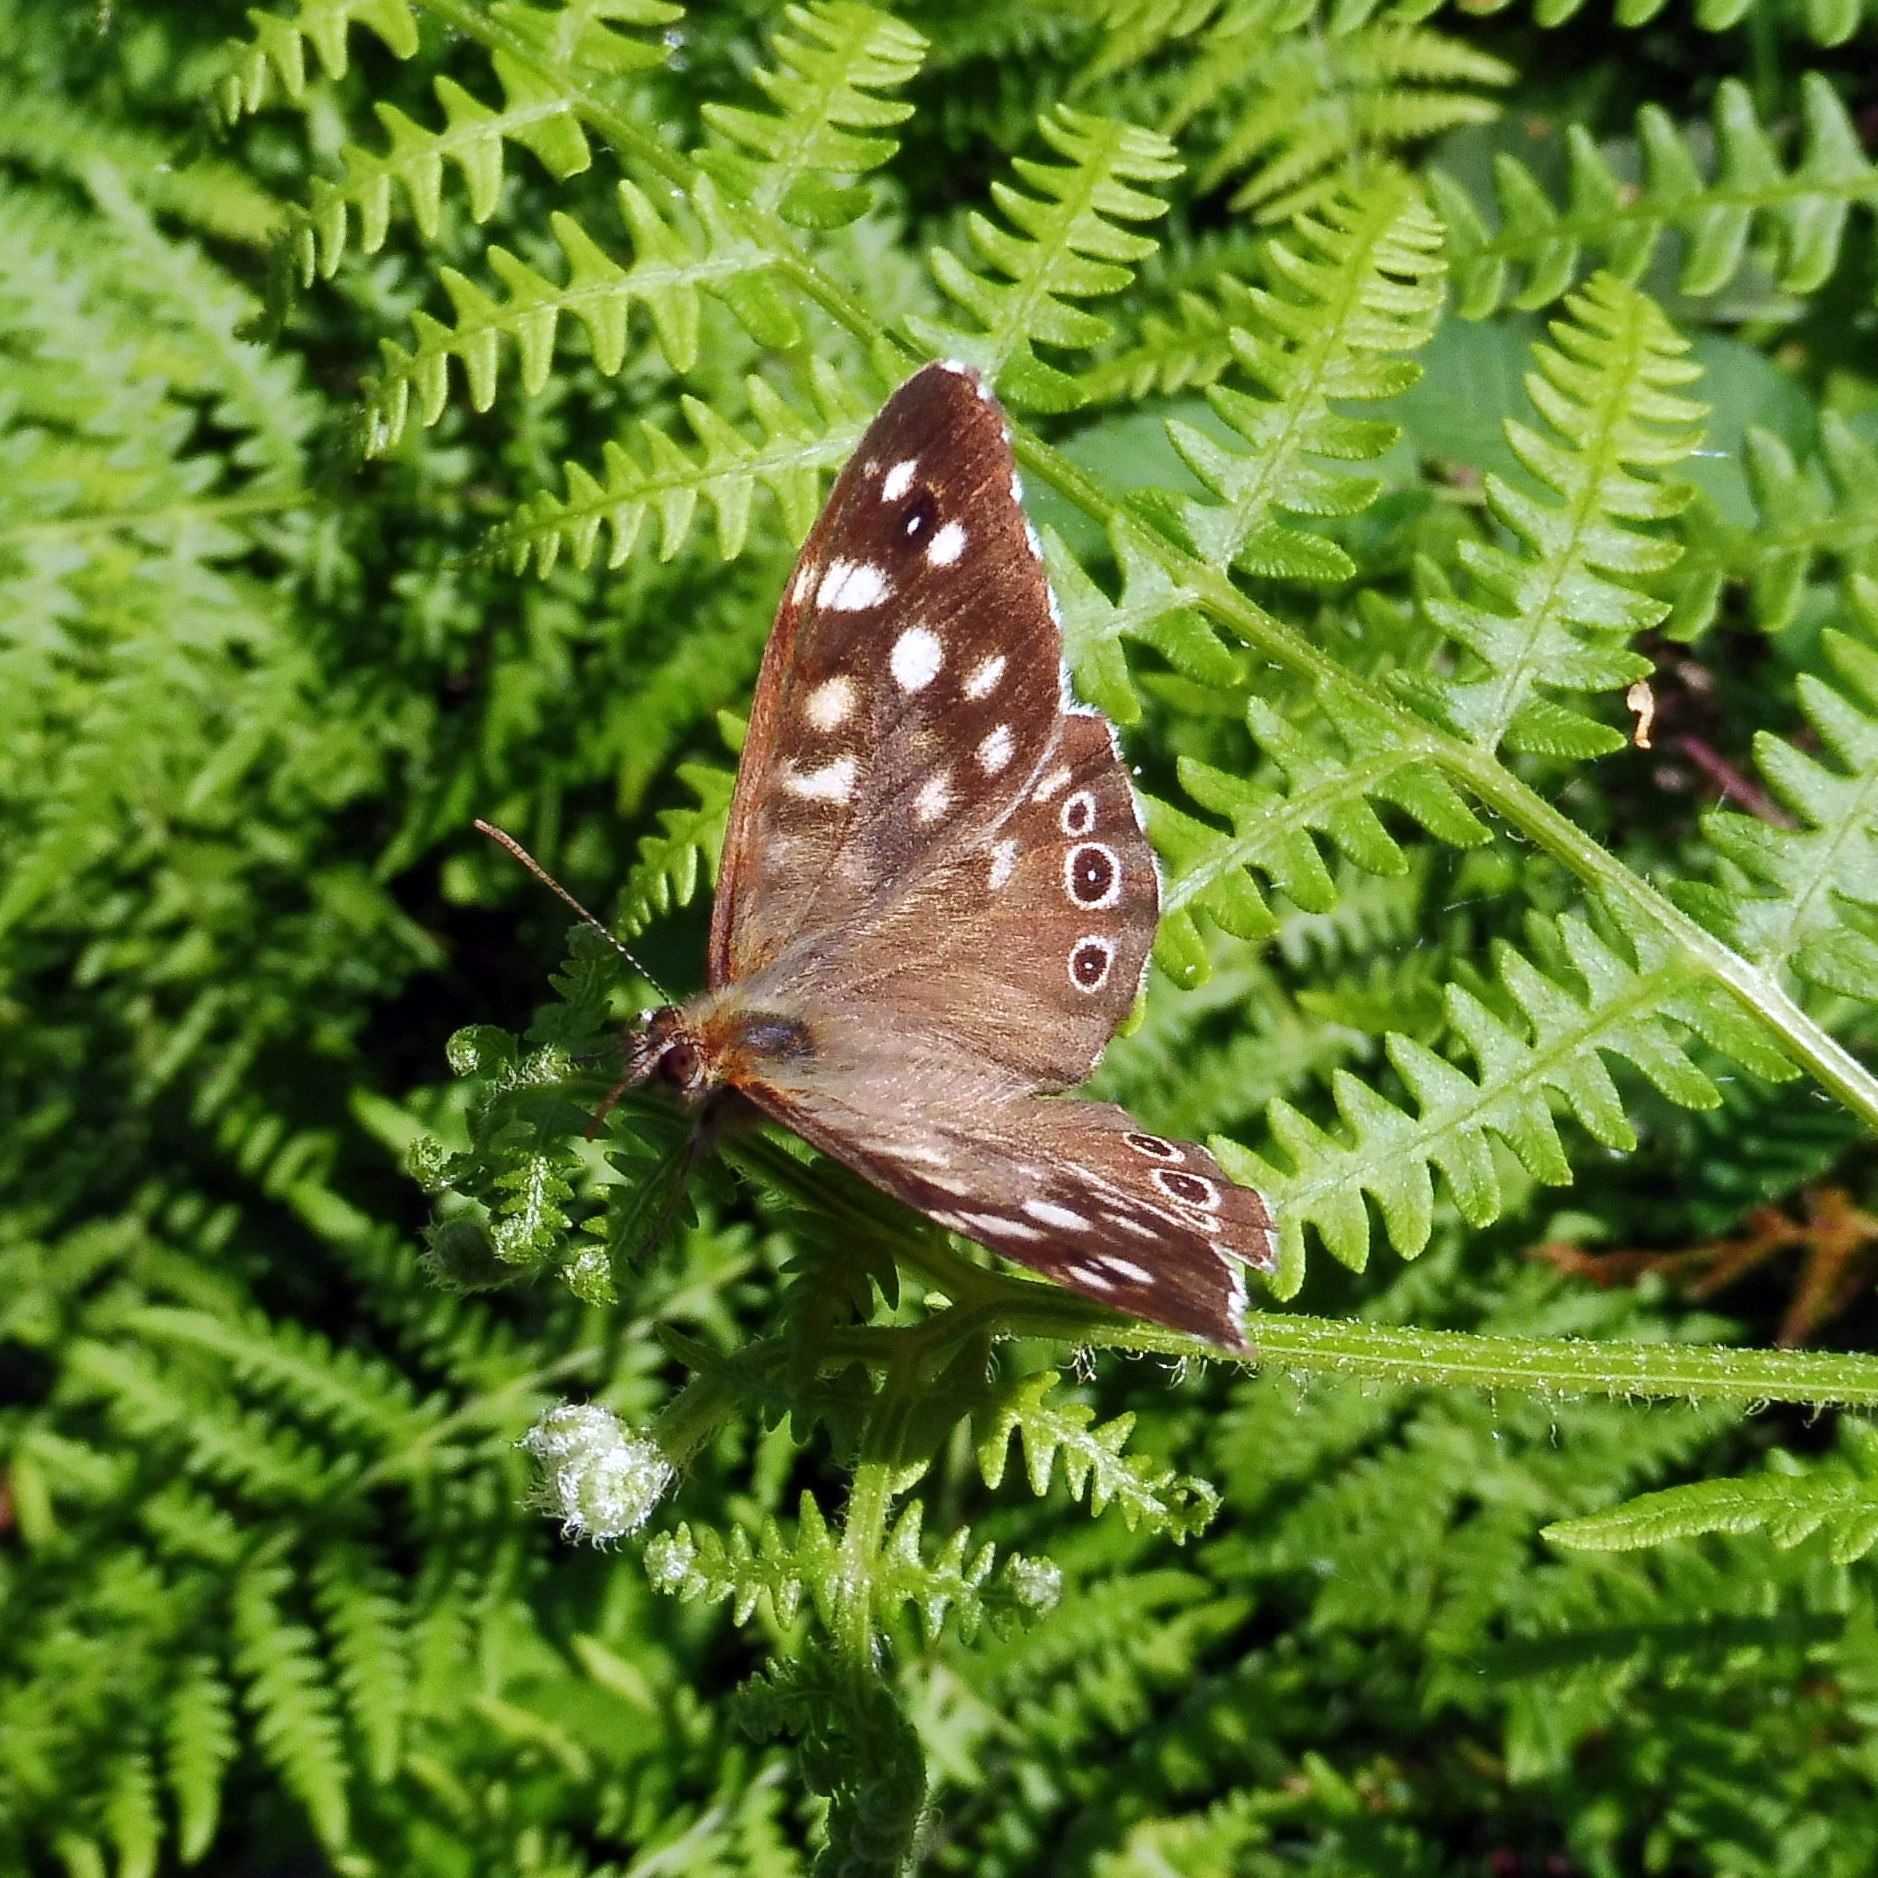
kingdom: Animalia
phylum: Arthropoda
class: Insecta
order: Lepidoptera
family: Nymphalidae
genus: Pararge
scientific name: Pararge aegeria
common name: Speckled wood
